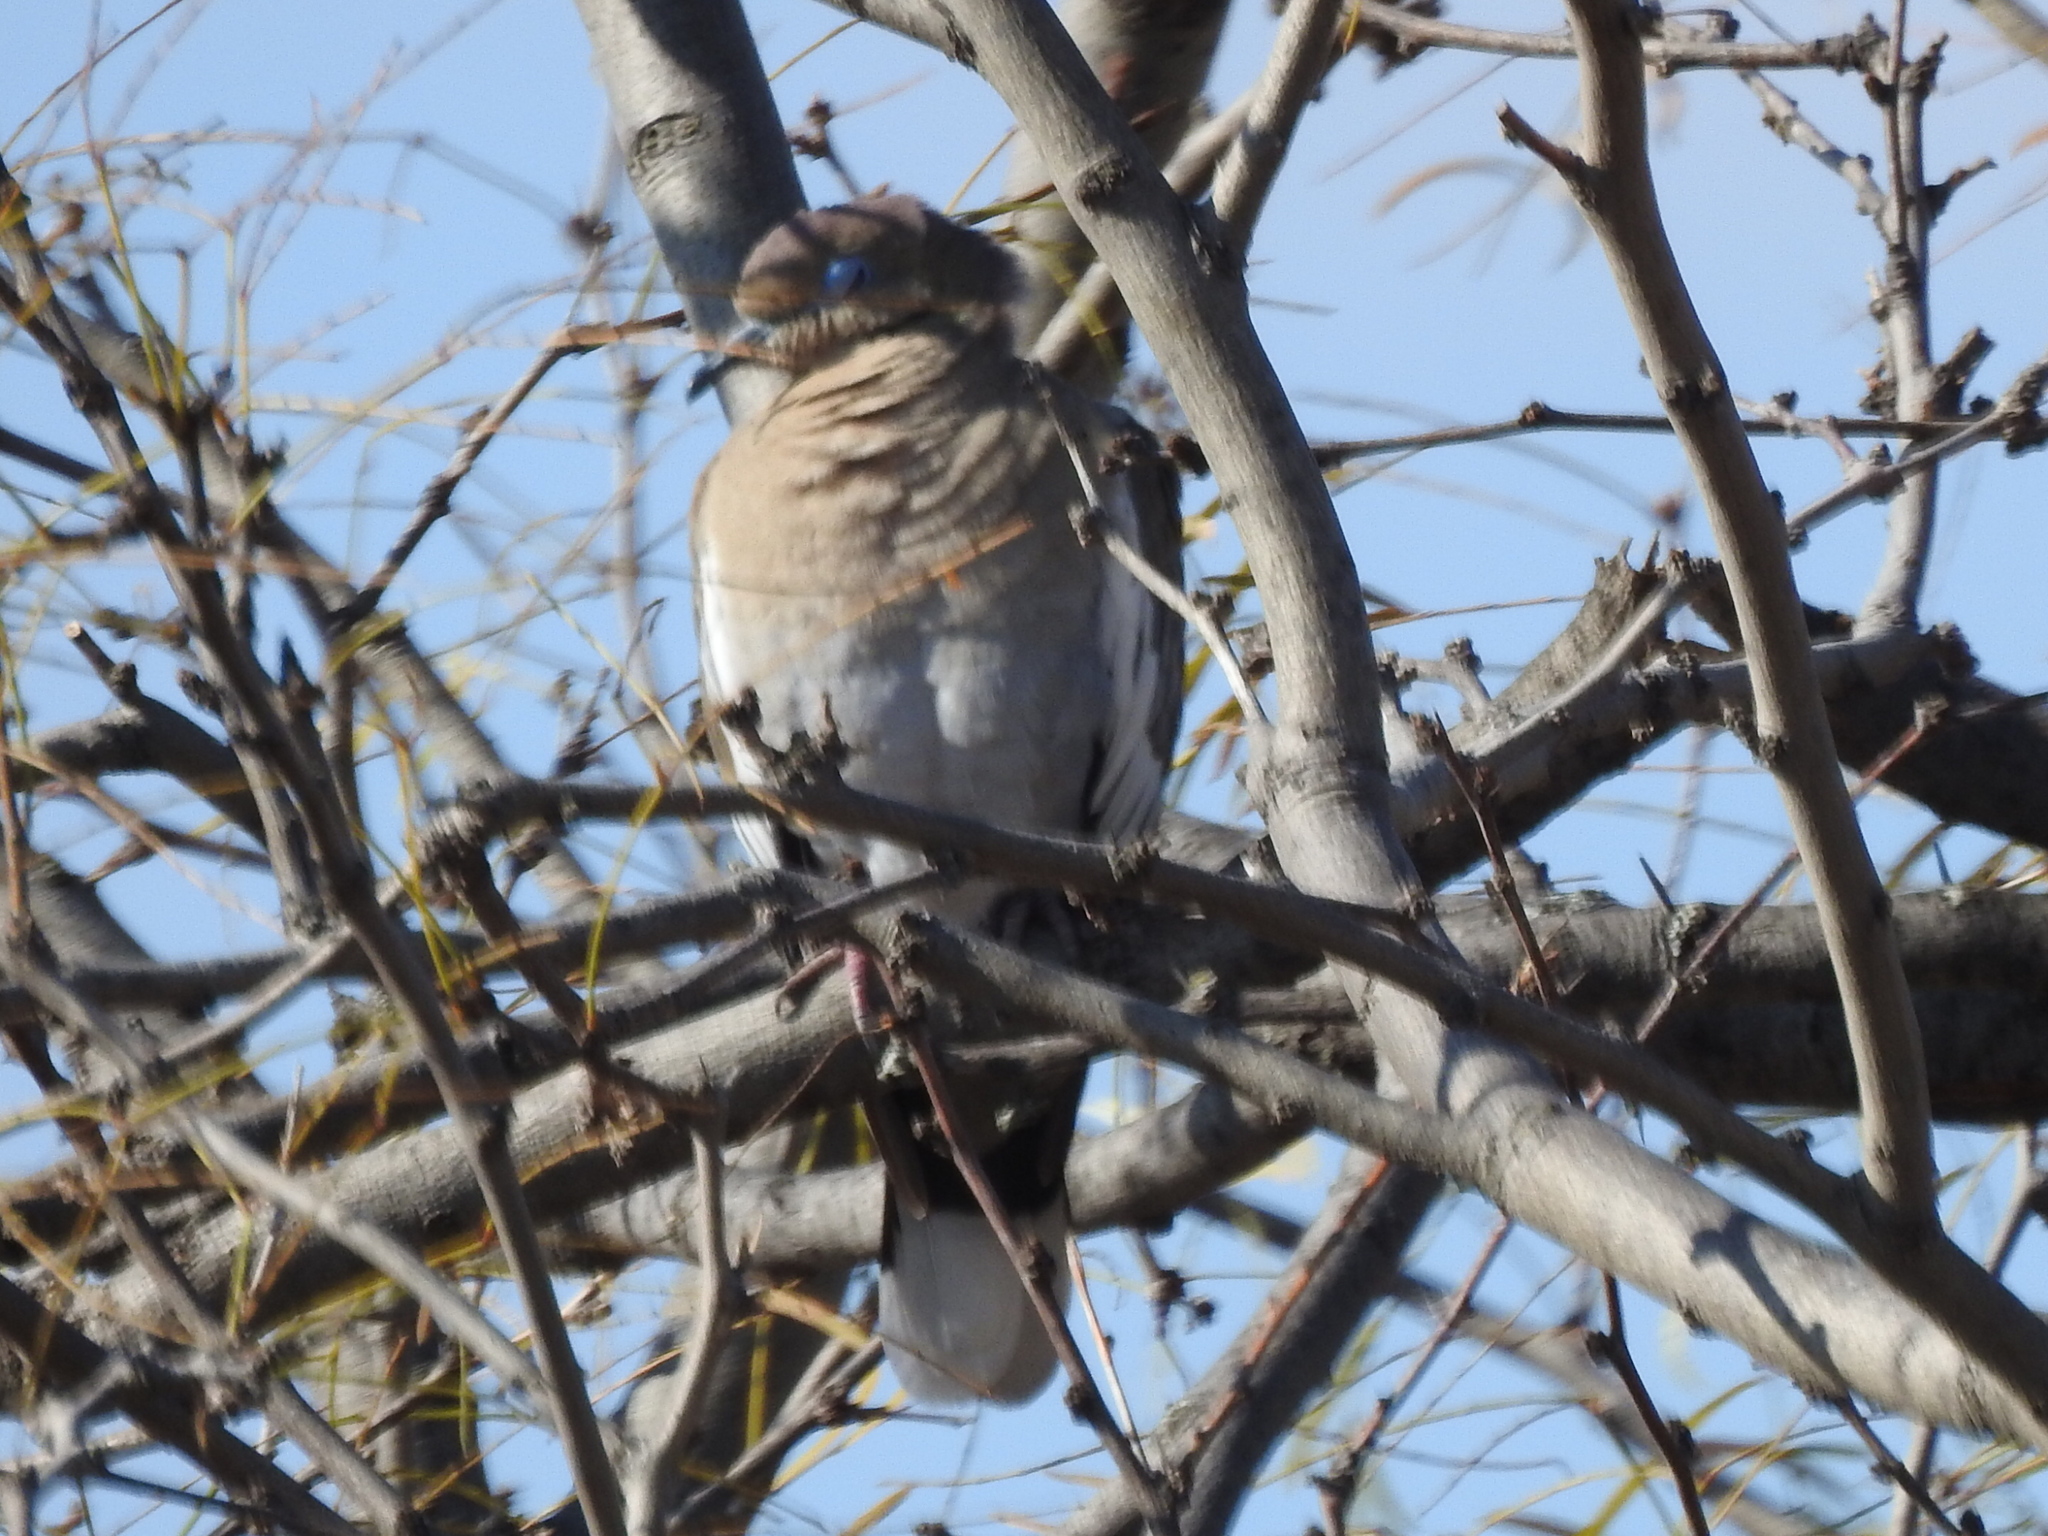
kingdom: Animalia
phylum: Chordata
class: Aves
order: Columbiformes
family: Columbidae
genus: Zenaida
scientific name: Zenaida asiatica
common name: White-winged dove
